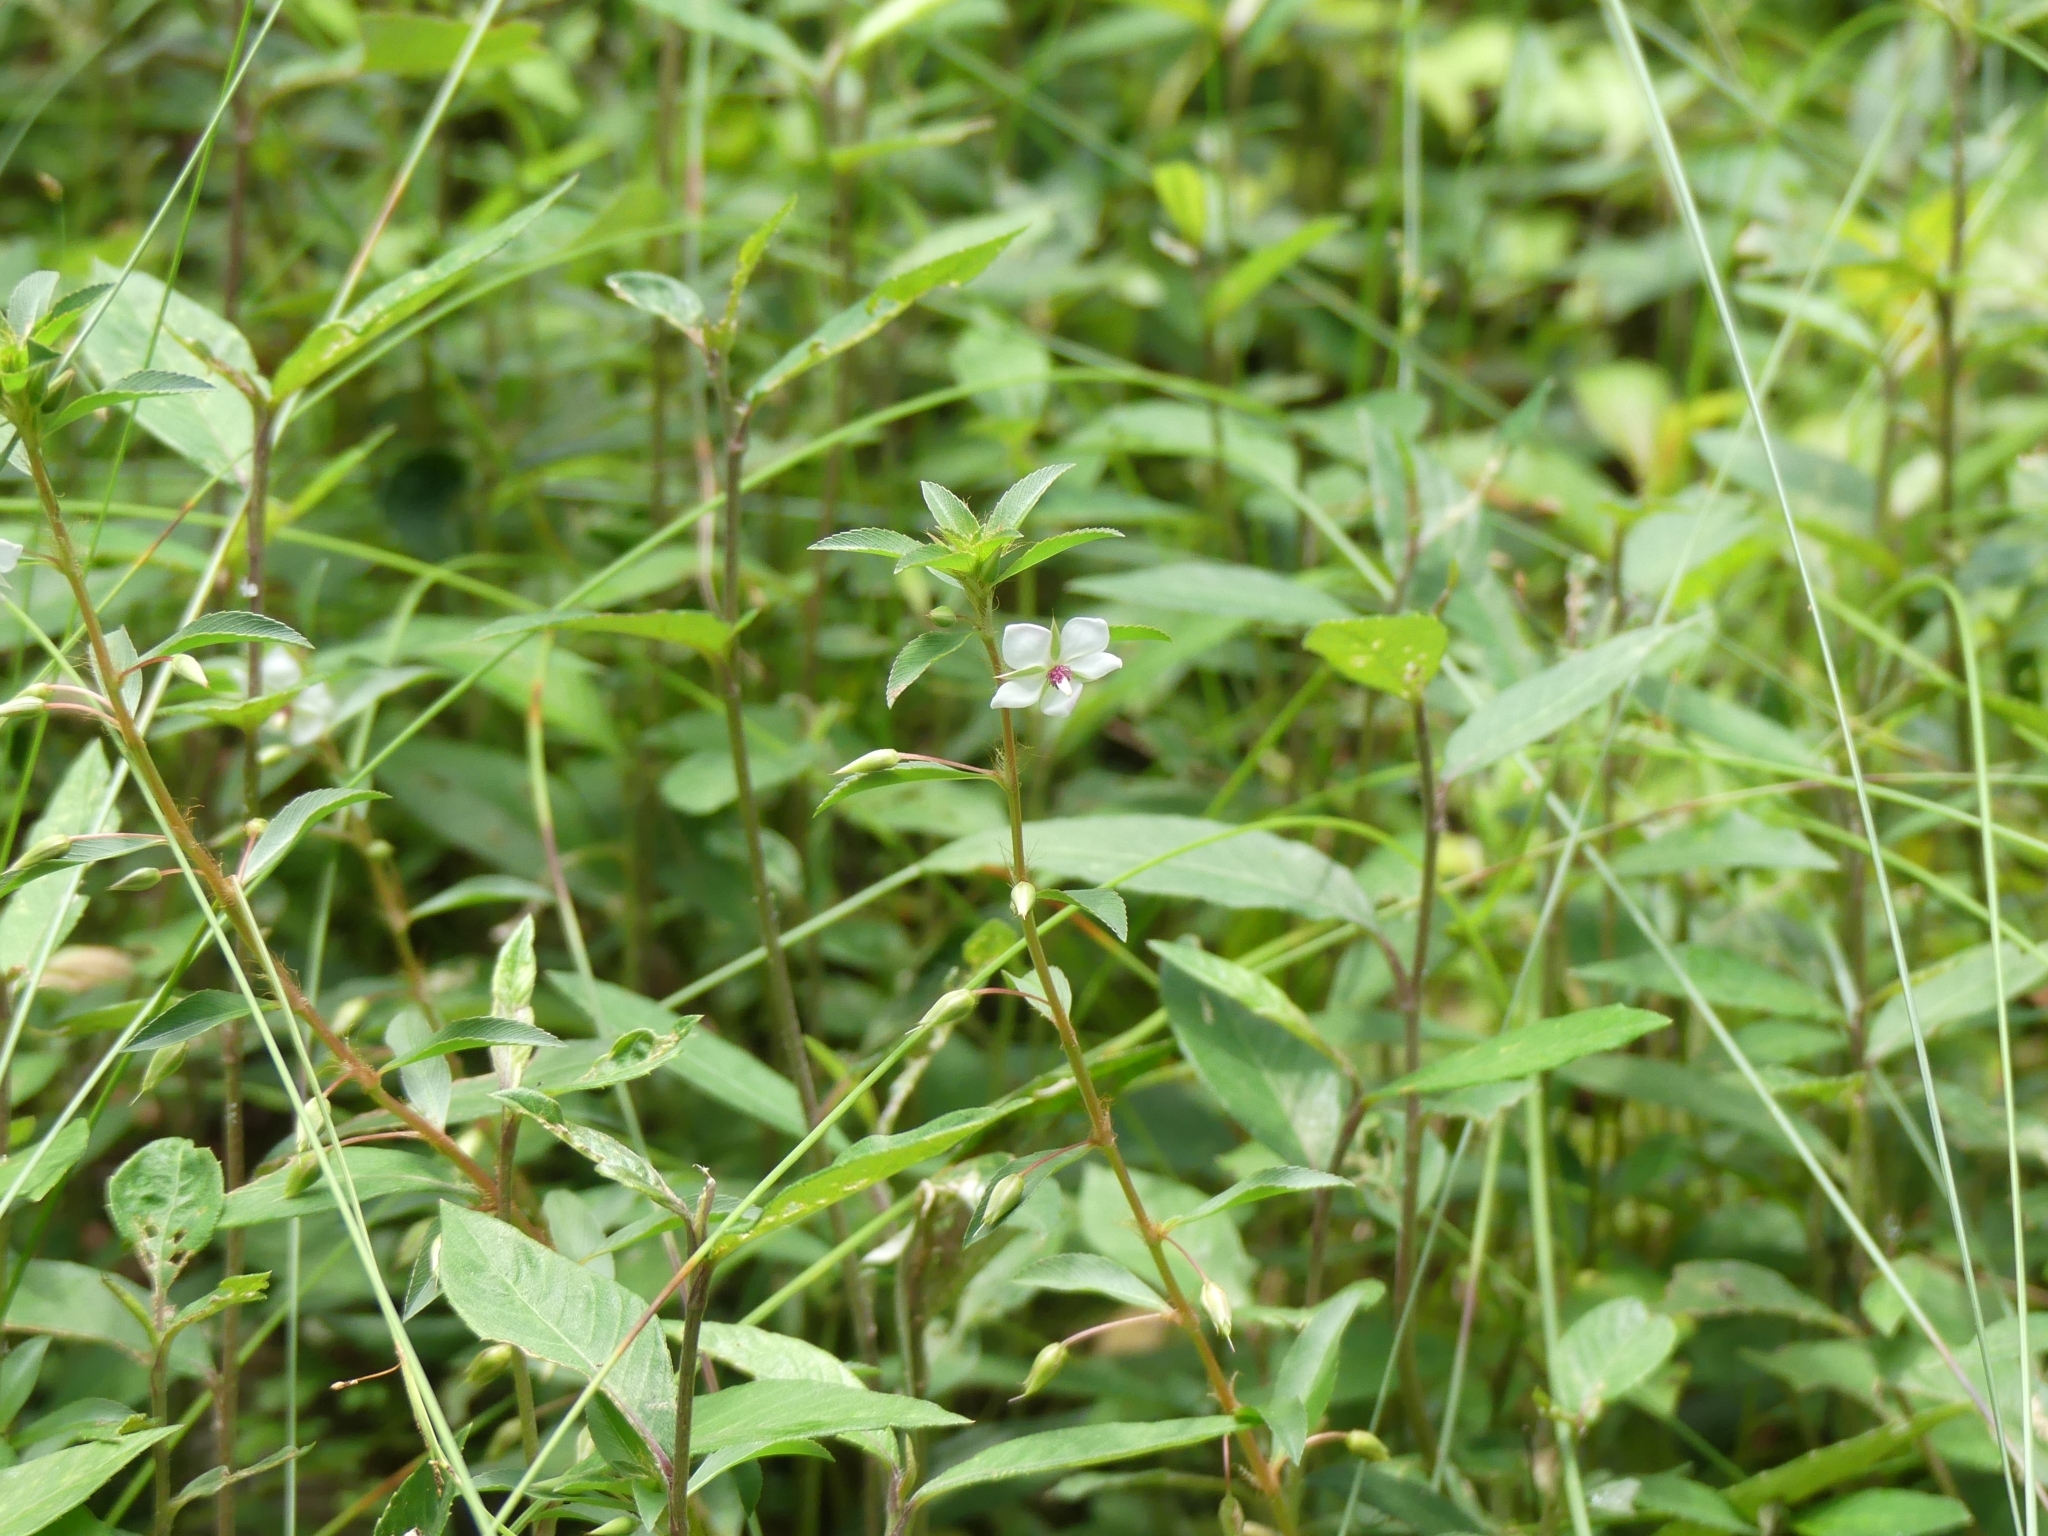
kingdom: Plantae
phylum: Tracheophyta
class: Magnoliopsida
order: Malpighiales
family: Ochnaceae
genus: Sauvagesia
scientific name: Sauvagesia erecta
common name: Creole tea
